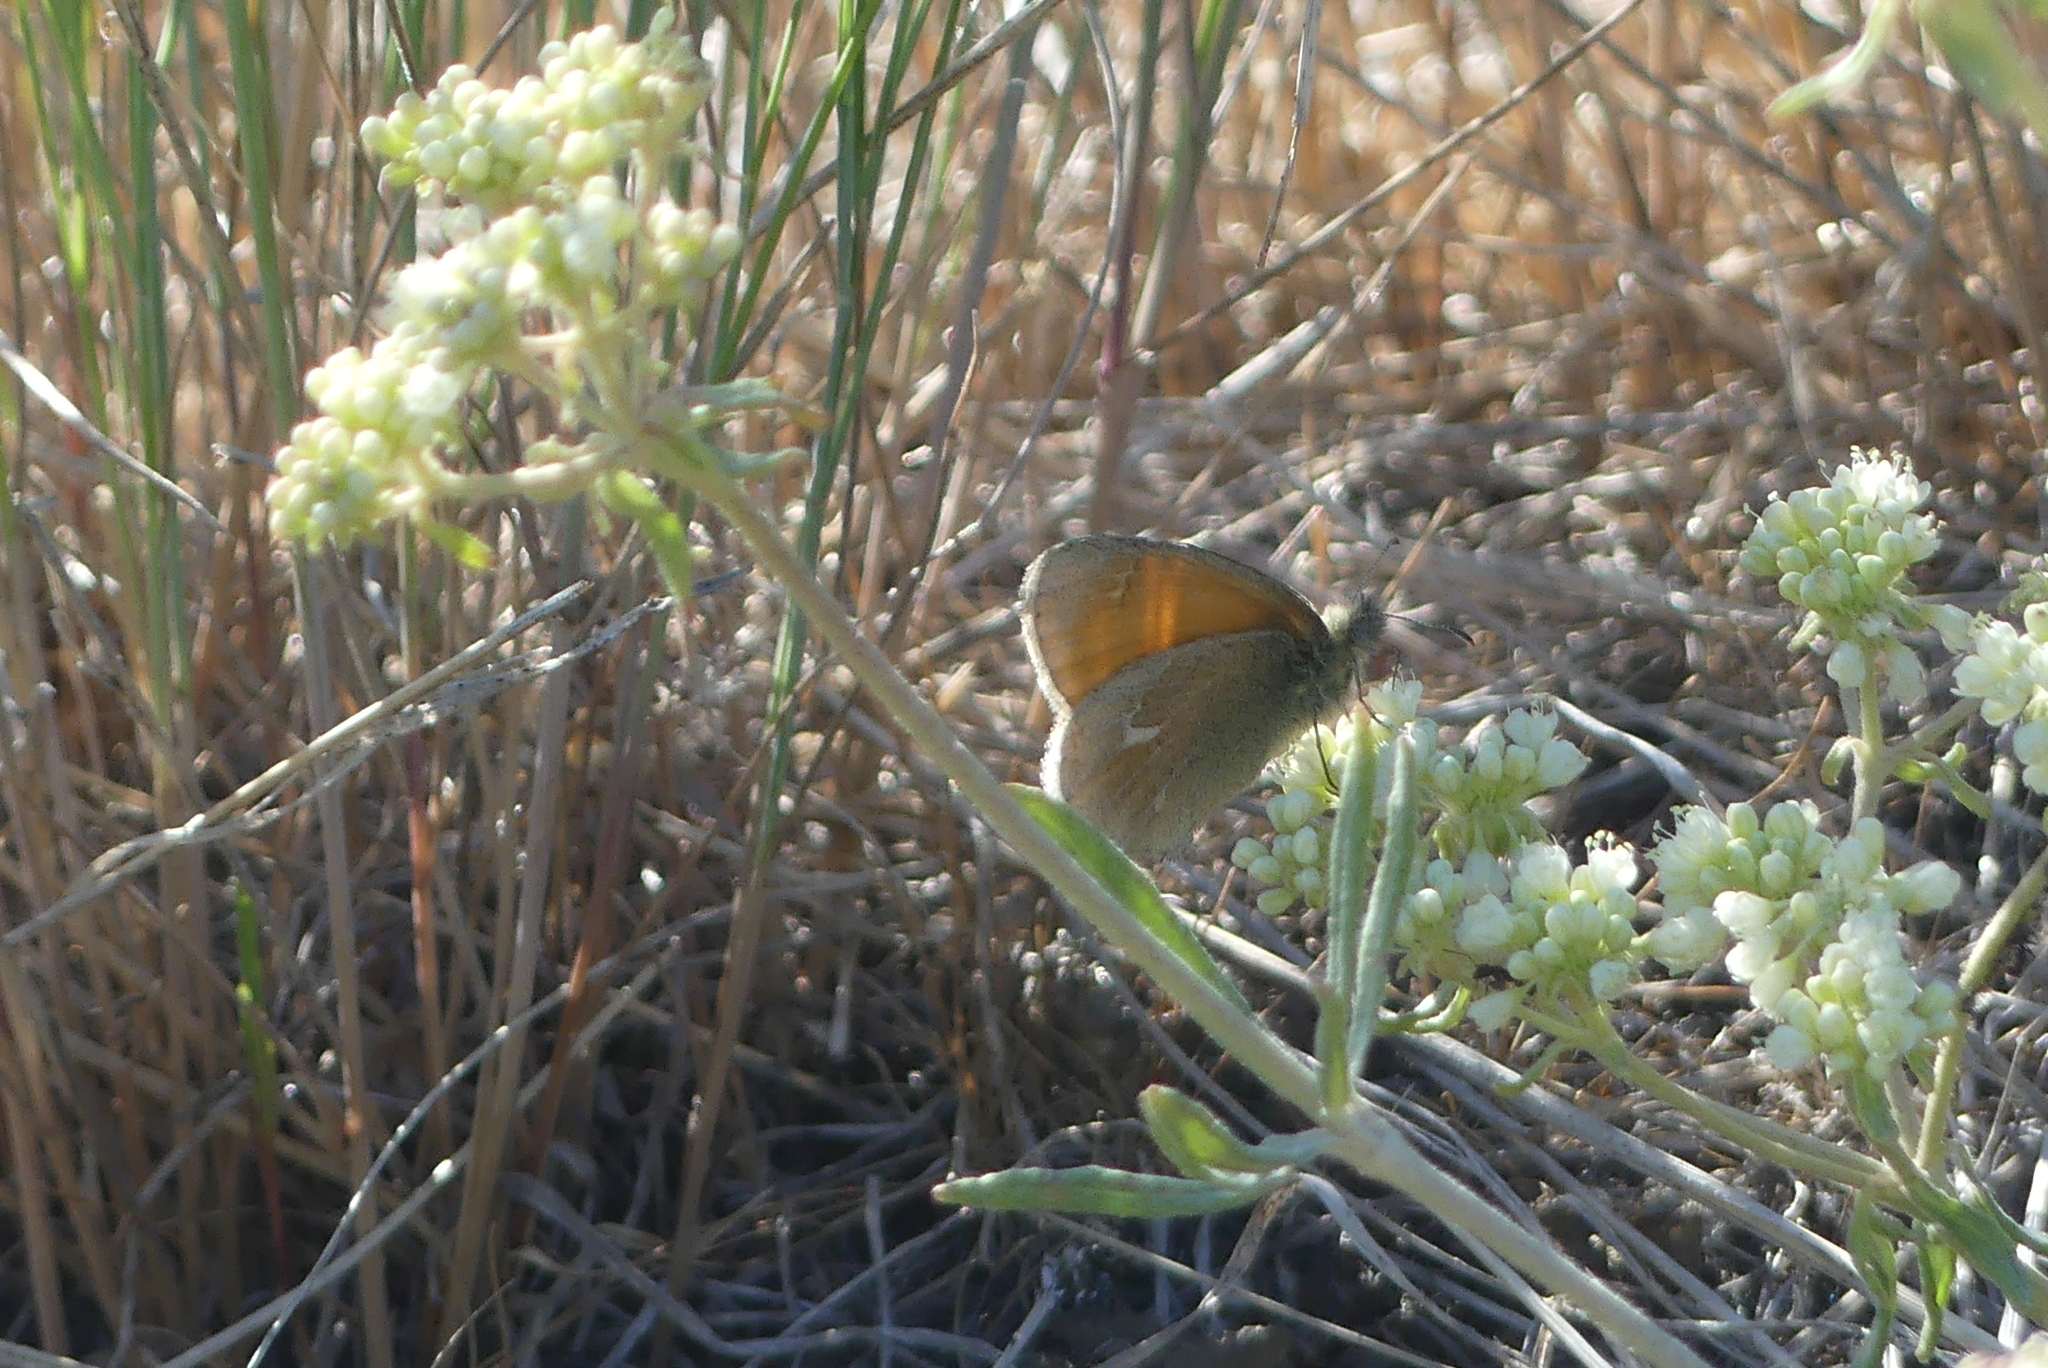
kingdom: Animalia
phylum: Arthropoda
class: Insecta
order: Lepidoptera
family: Nymphalidae
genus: Coenonympha
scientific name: Coenonympha california
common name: Common ringlet
